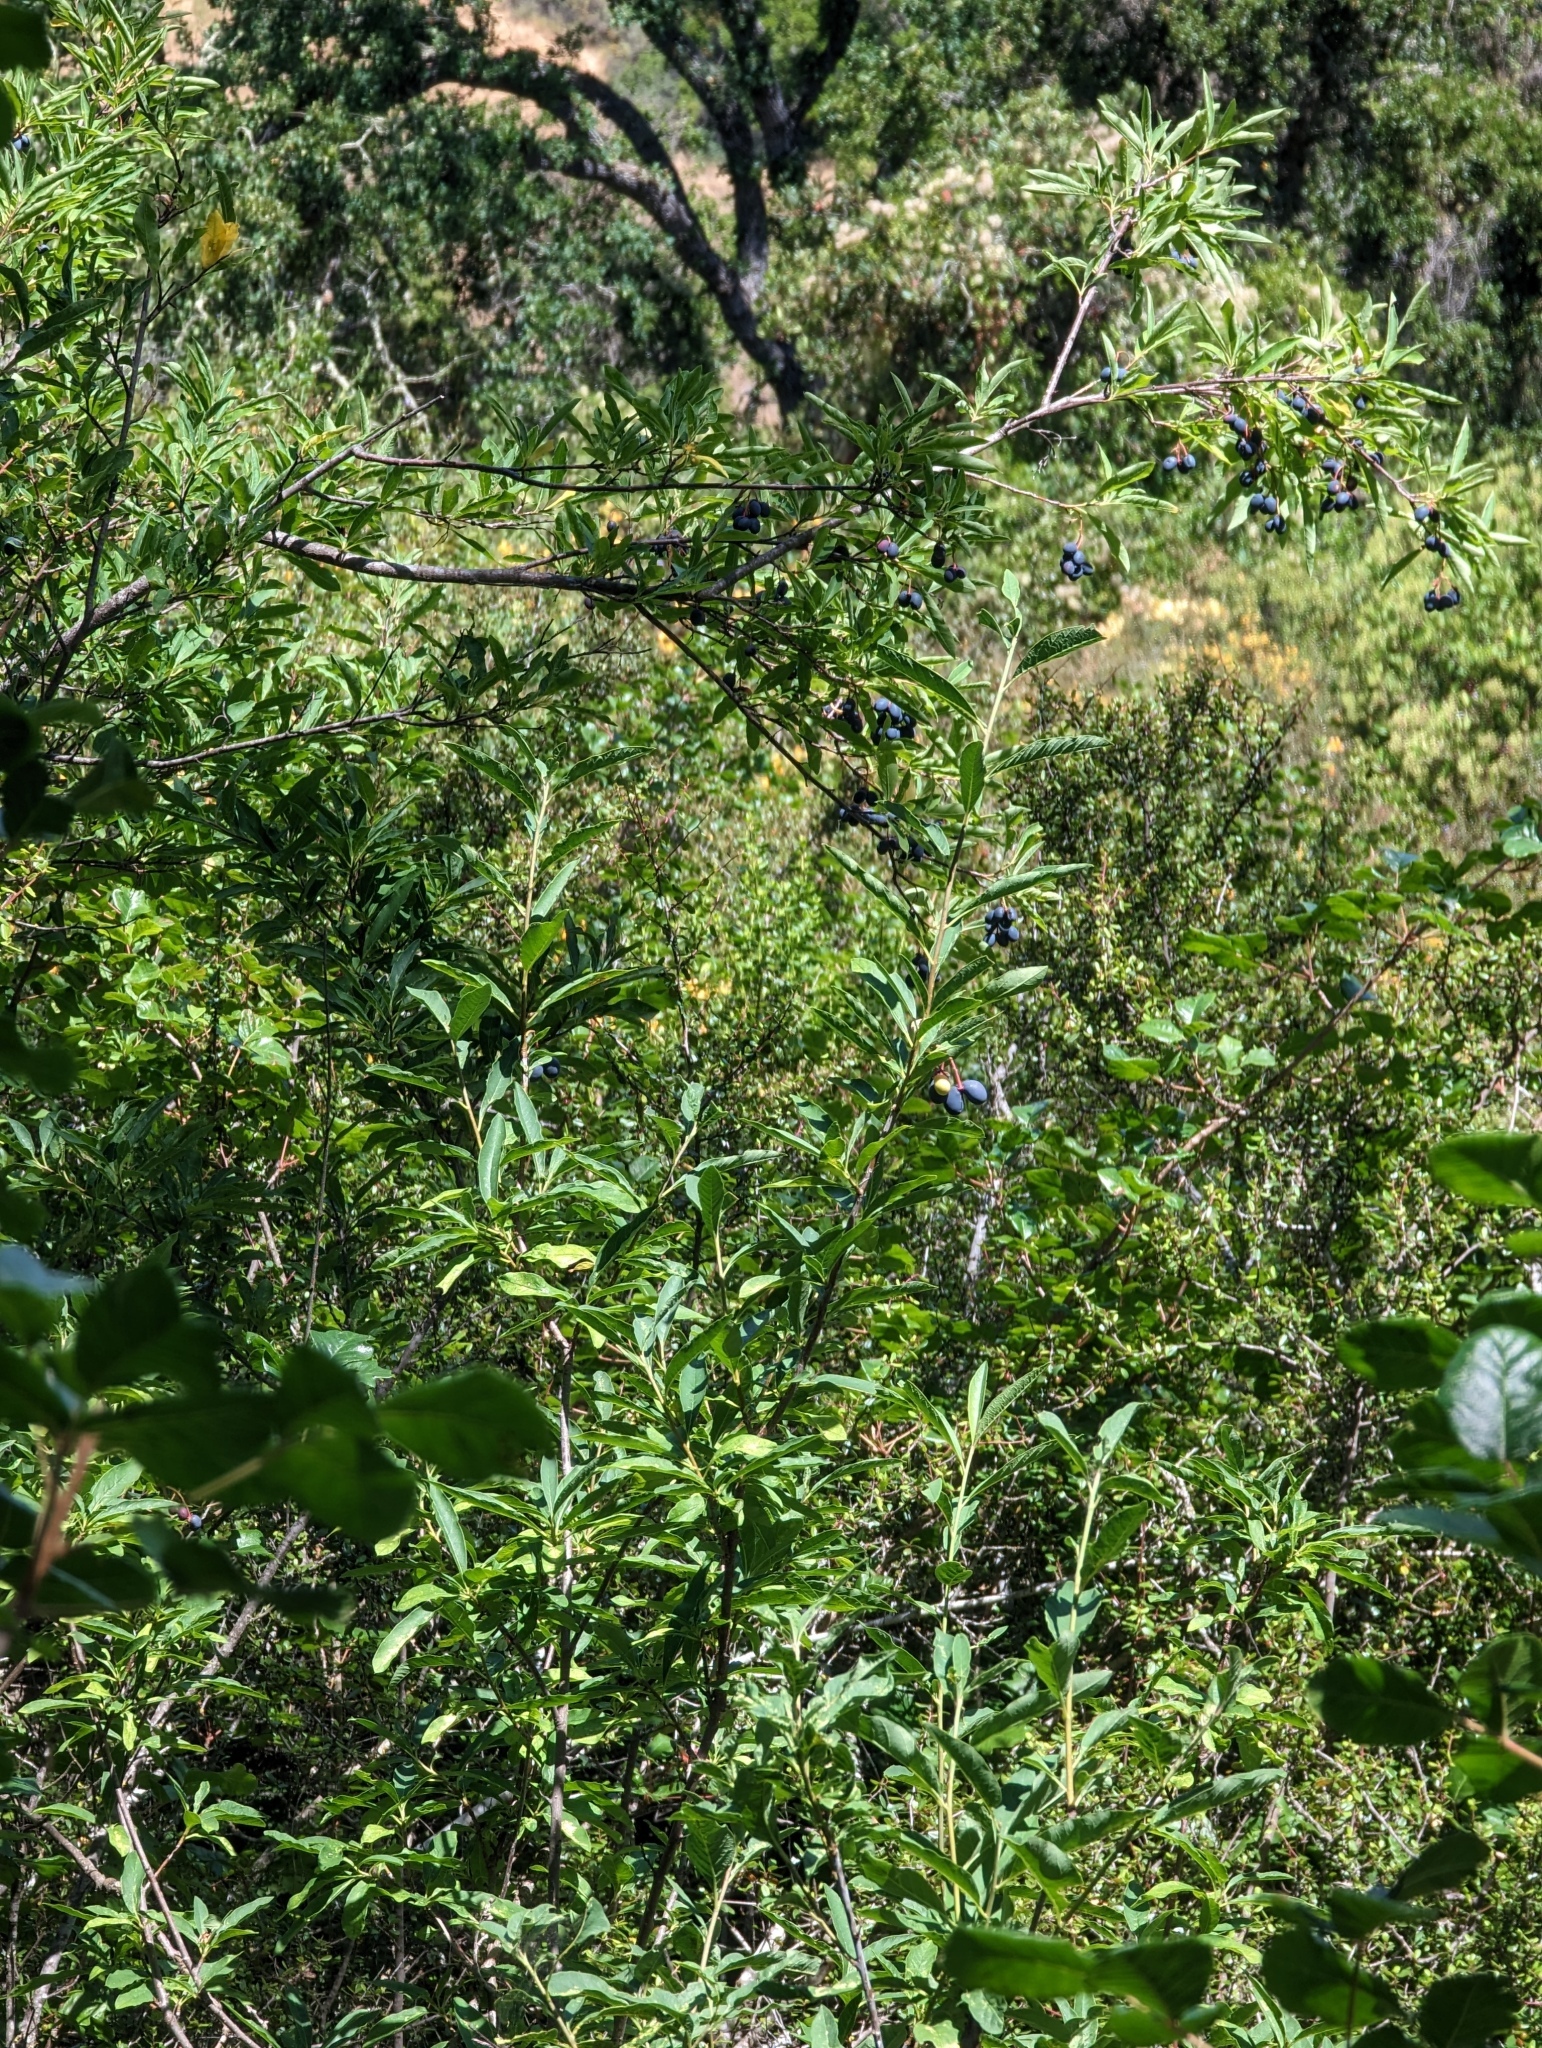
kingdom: Plantae
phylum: Tracheophyta
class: Magnoliopsida
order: Rosales
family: Rosaceae
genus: Oemleria
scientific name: Oemleria cerasiformis
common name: Osoberry
